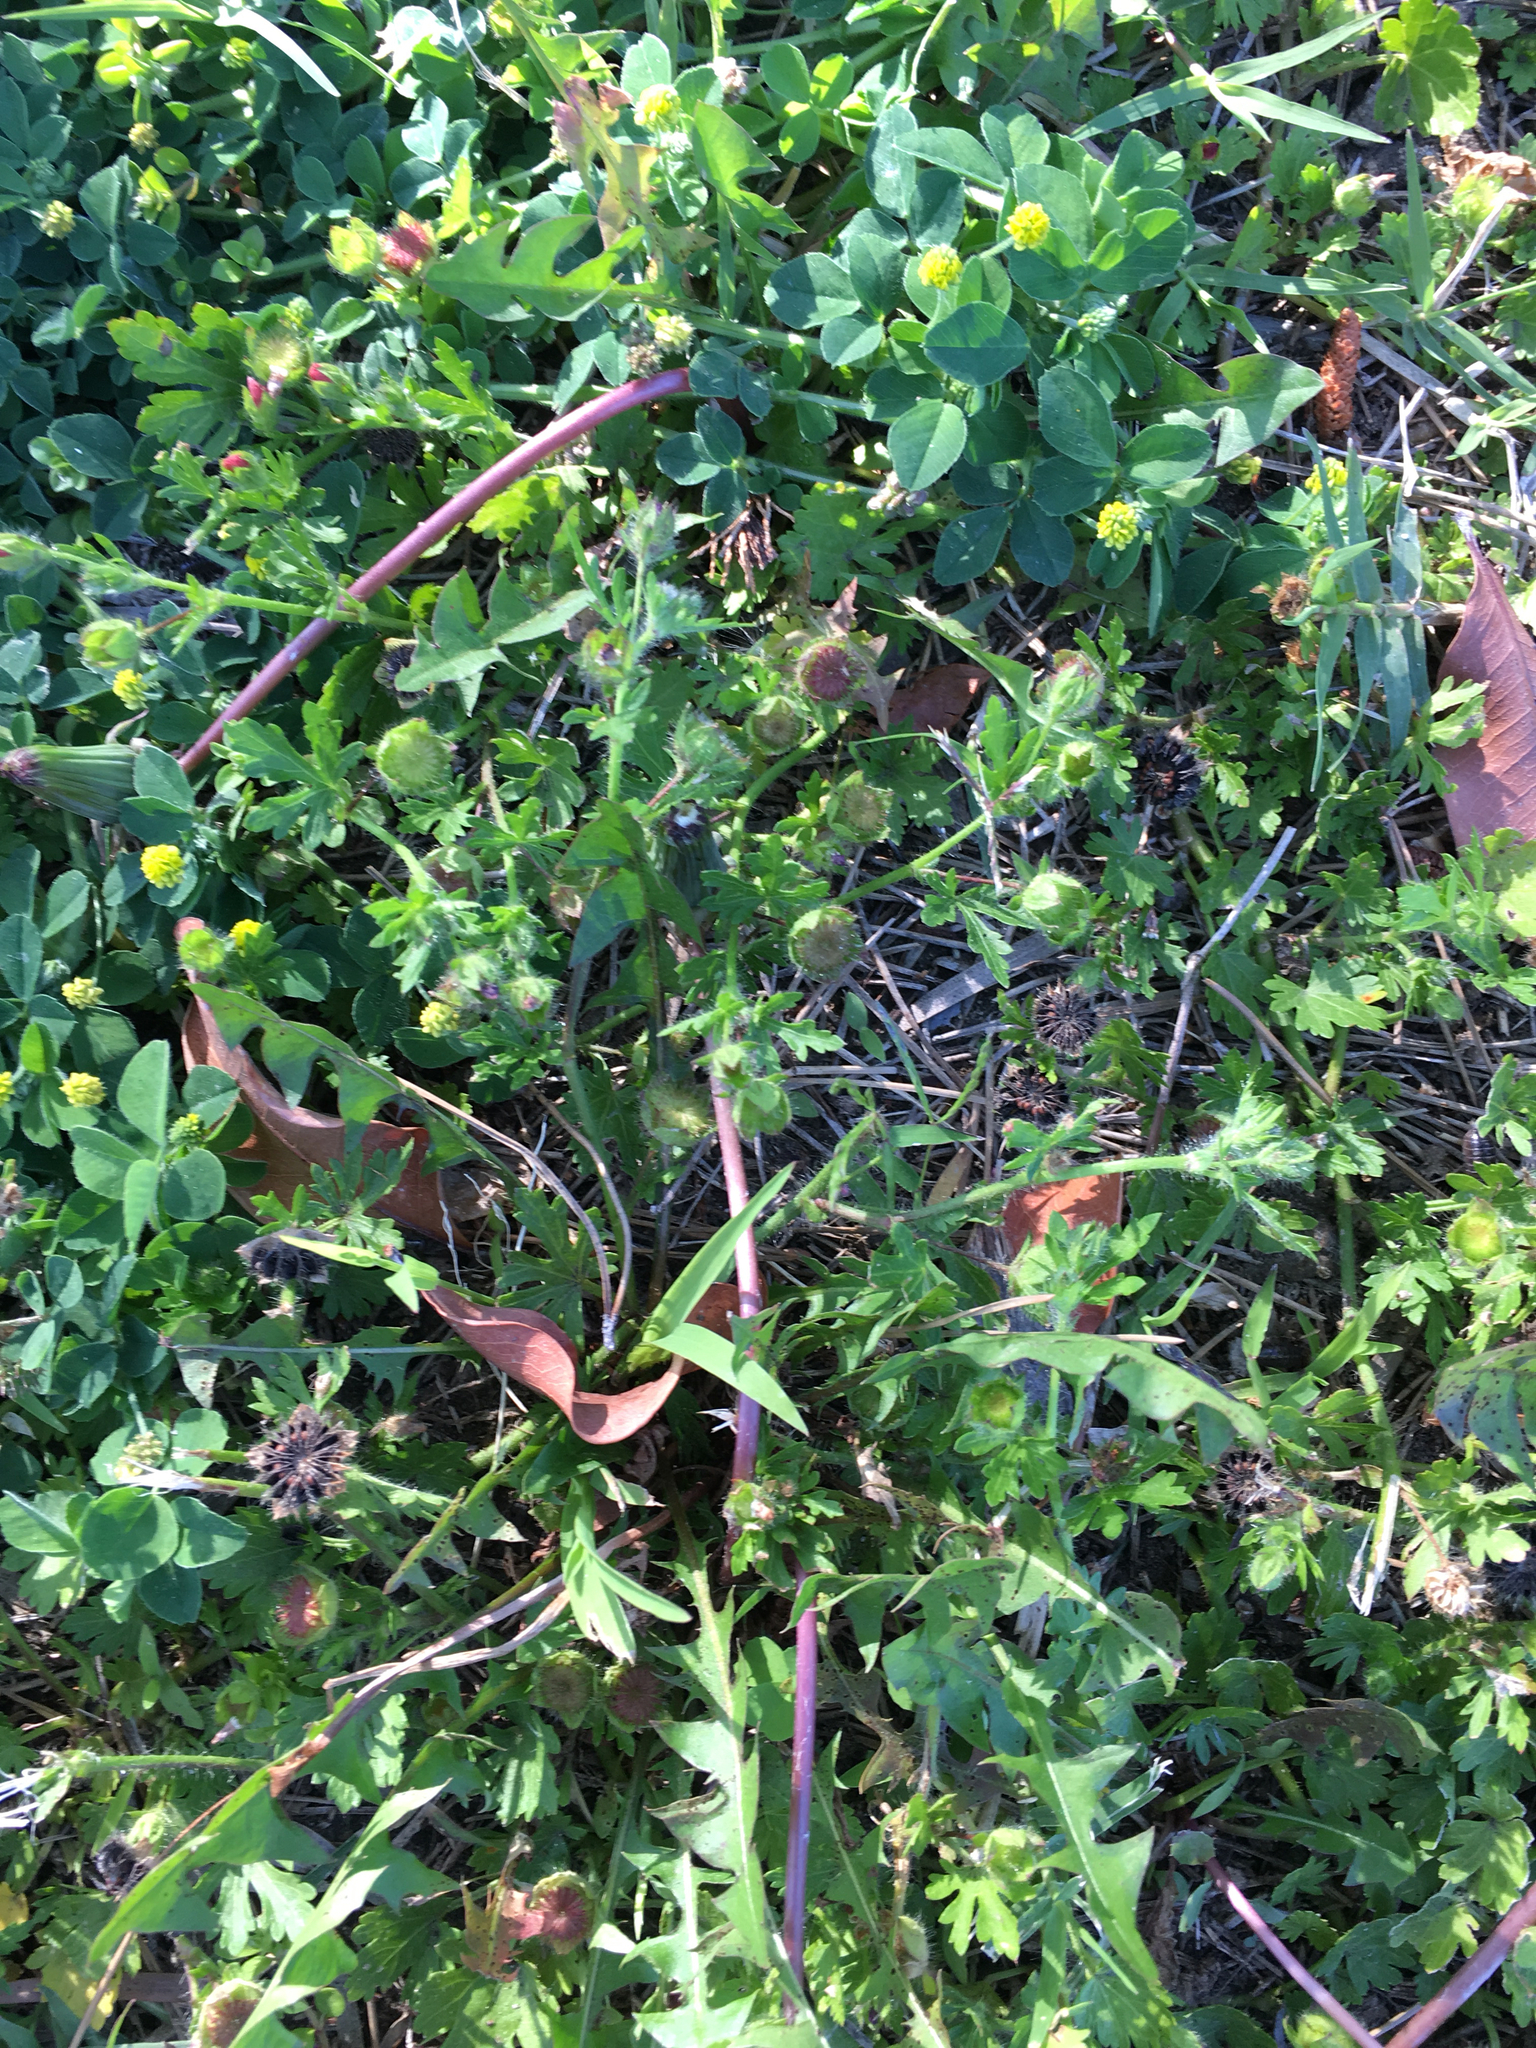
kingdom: Plantae
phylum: Tracheophyta
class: Magnoliopsida
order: Malvales
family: Malvaceae
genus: Modiola
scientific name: Modiola caroliniana
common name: Carolina bristlemallow
